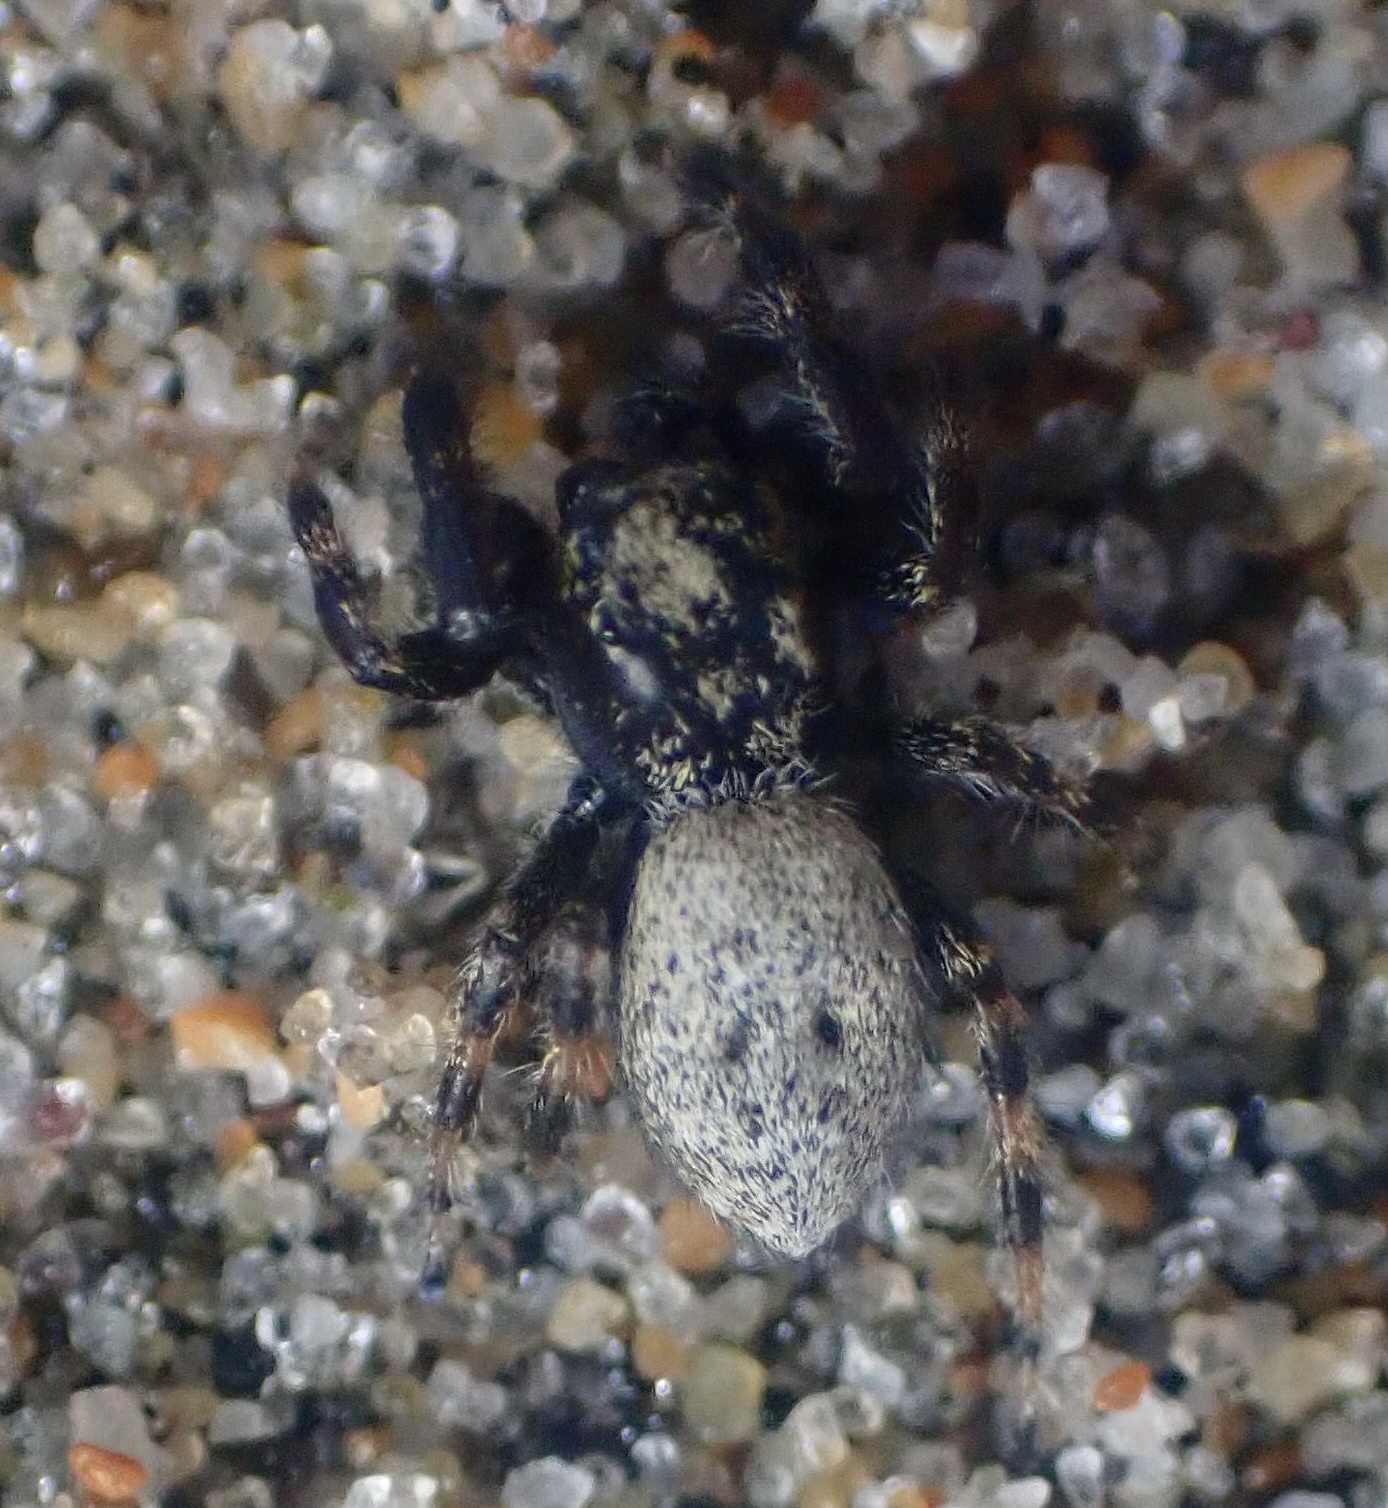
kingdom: Animalia
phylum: Arthropoda
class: Arachnida
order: Araneae
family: Salticidae
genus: Terralonus
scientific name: Terralonus californicus
